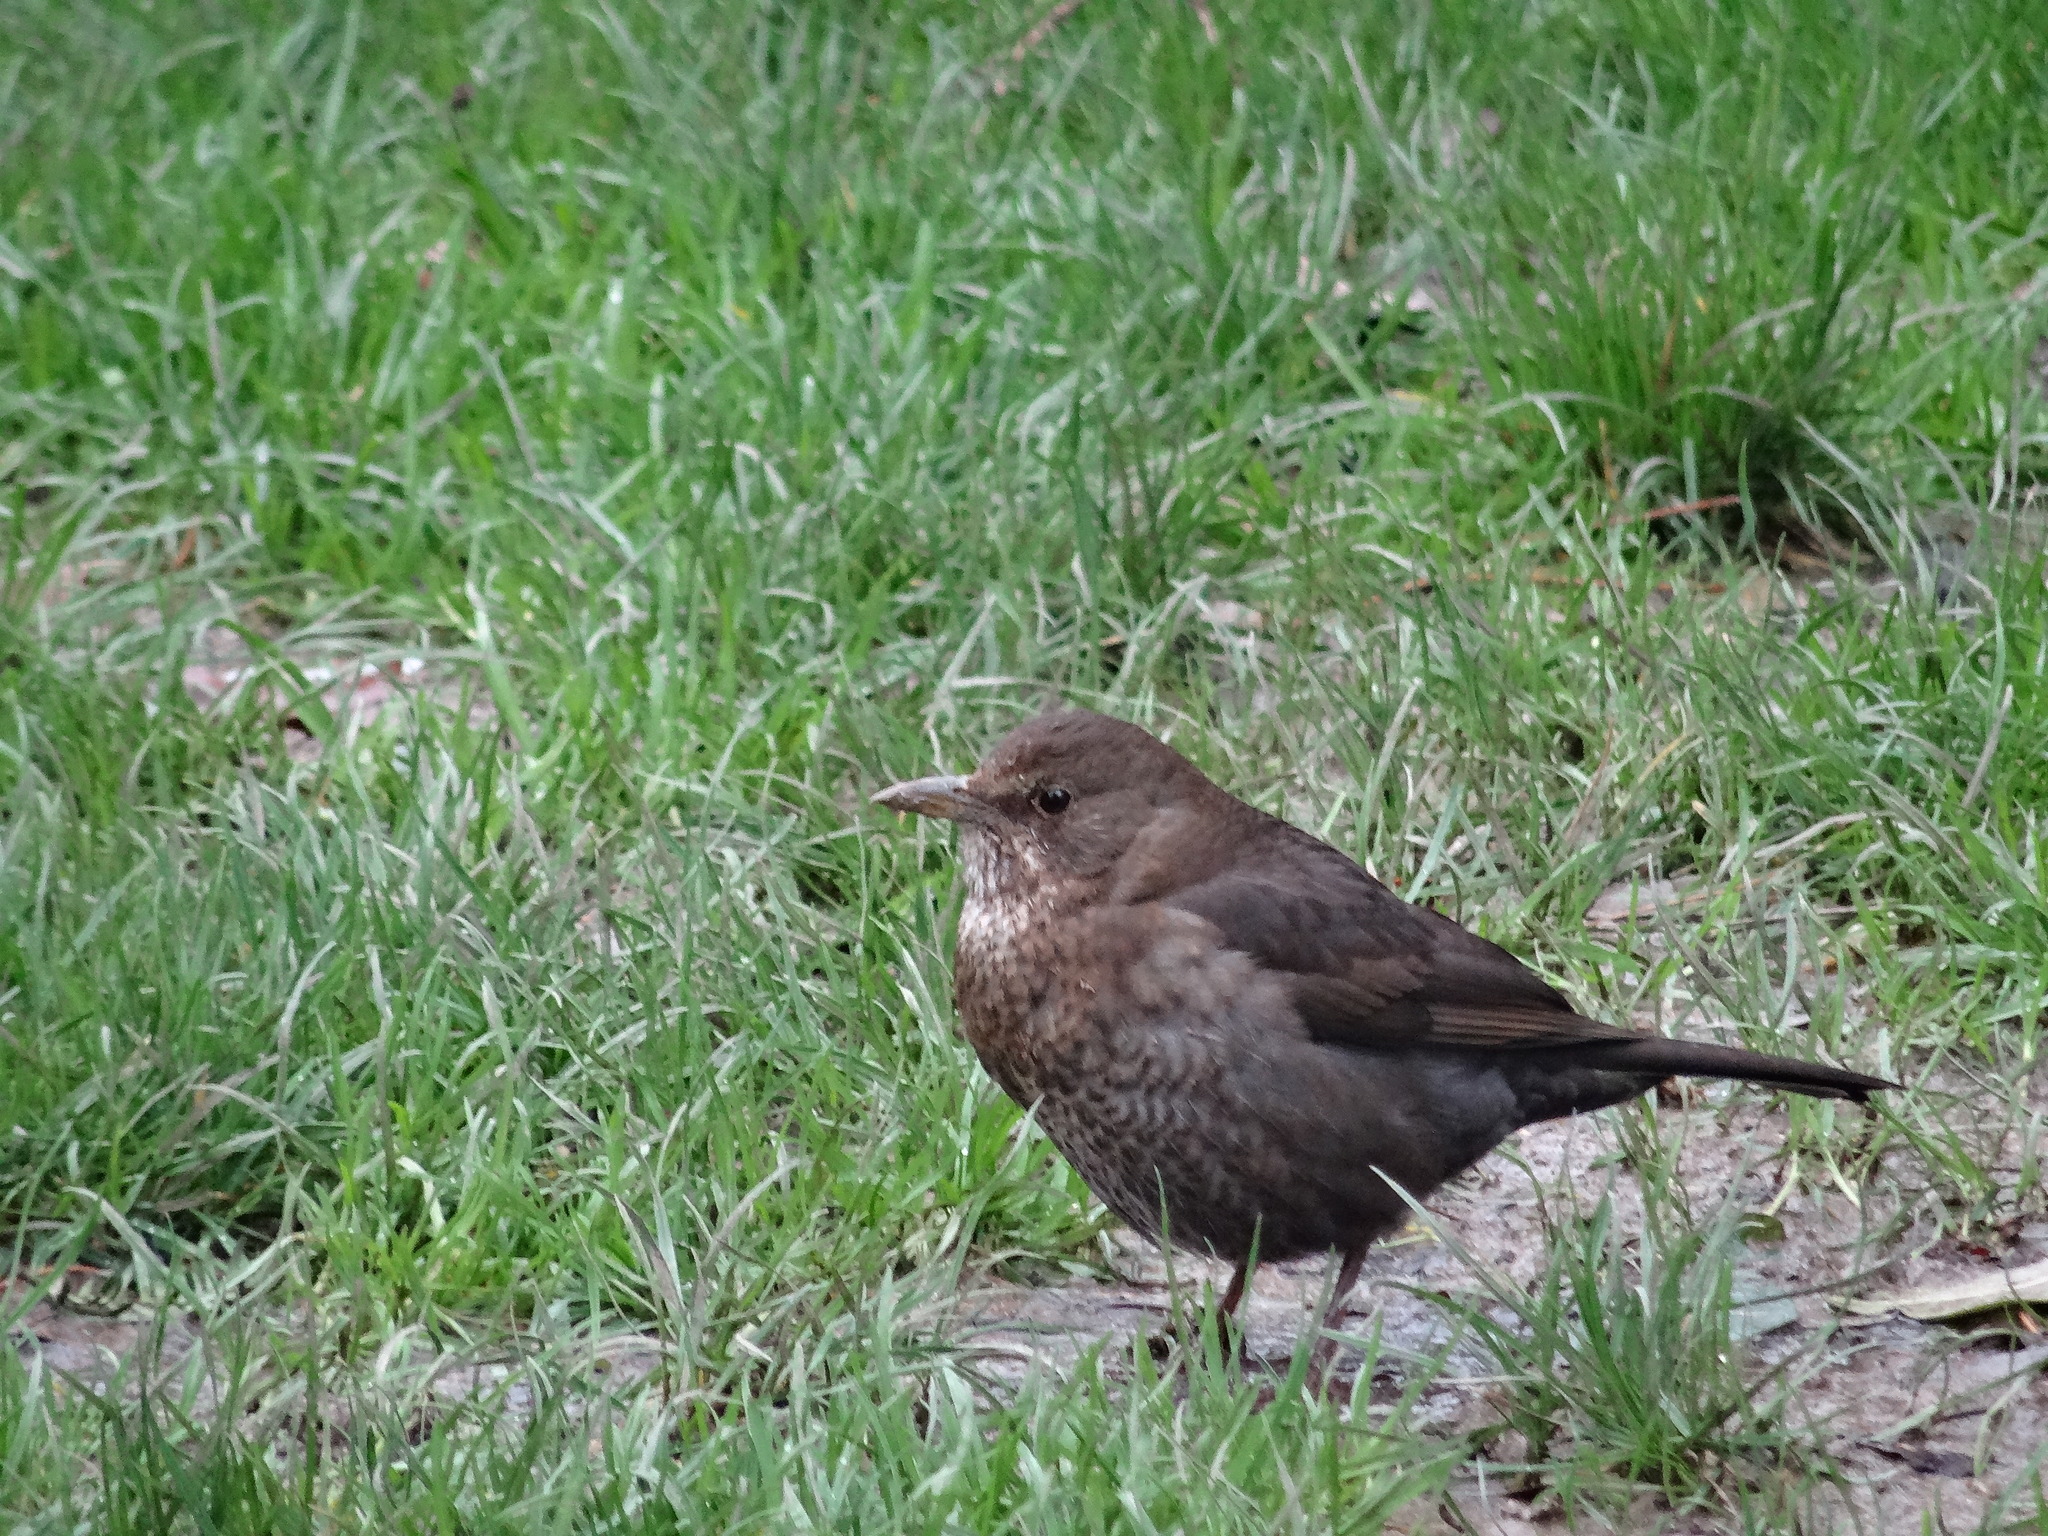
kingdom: Animalia
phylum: Chordata
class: Aves
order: Passeriformes
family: Turdidae
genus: Turdus
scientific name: Turdus merula
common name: Common blackbird
